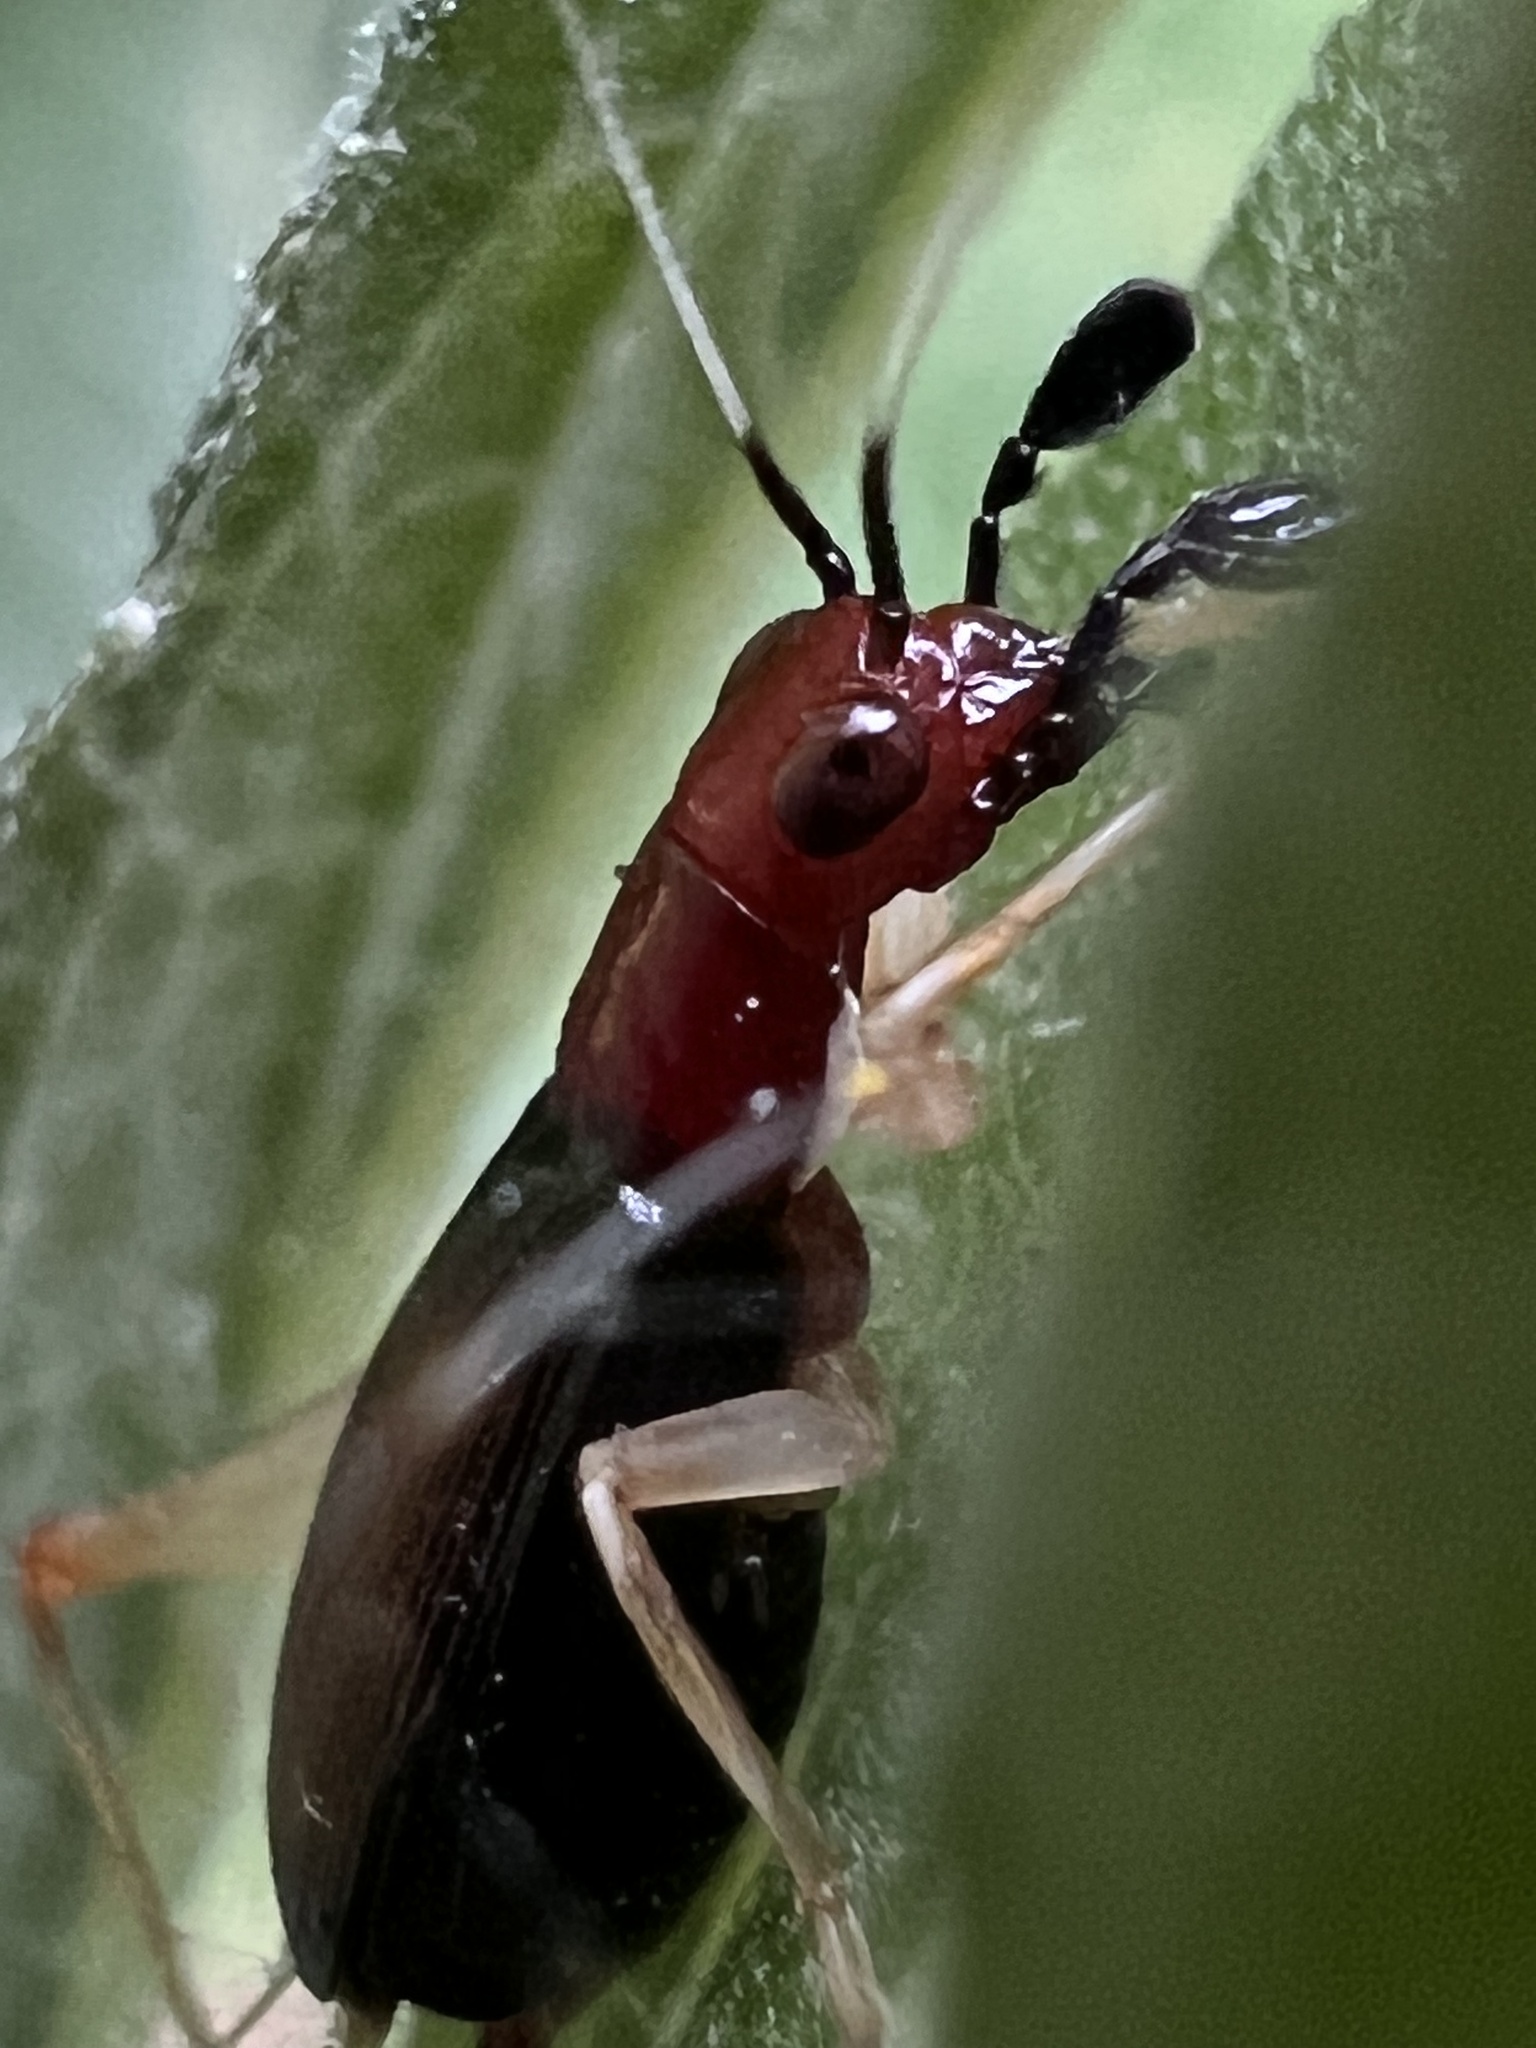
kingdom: Animalia
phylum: Arthropoda
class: Insecta
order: Orthoptera
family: Trigonidiidae
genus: Phyllopalpus
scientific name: Phyllopalpus pulchellus
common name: Handsome trig
